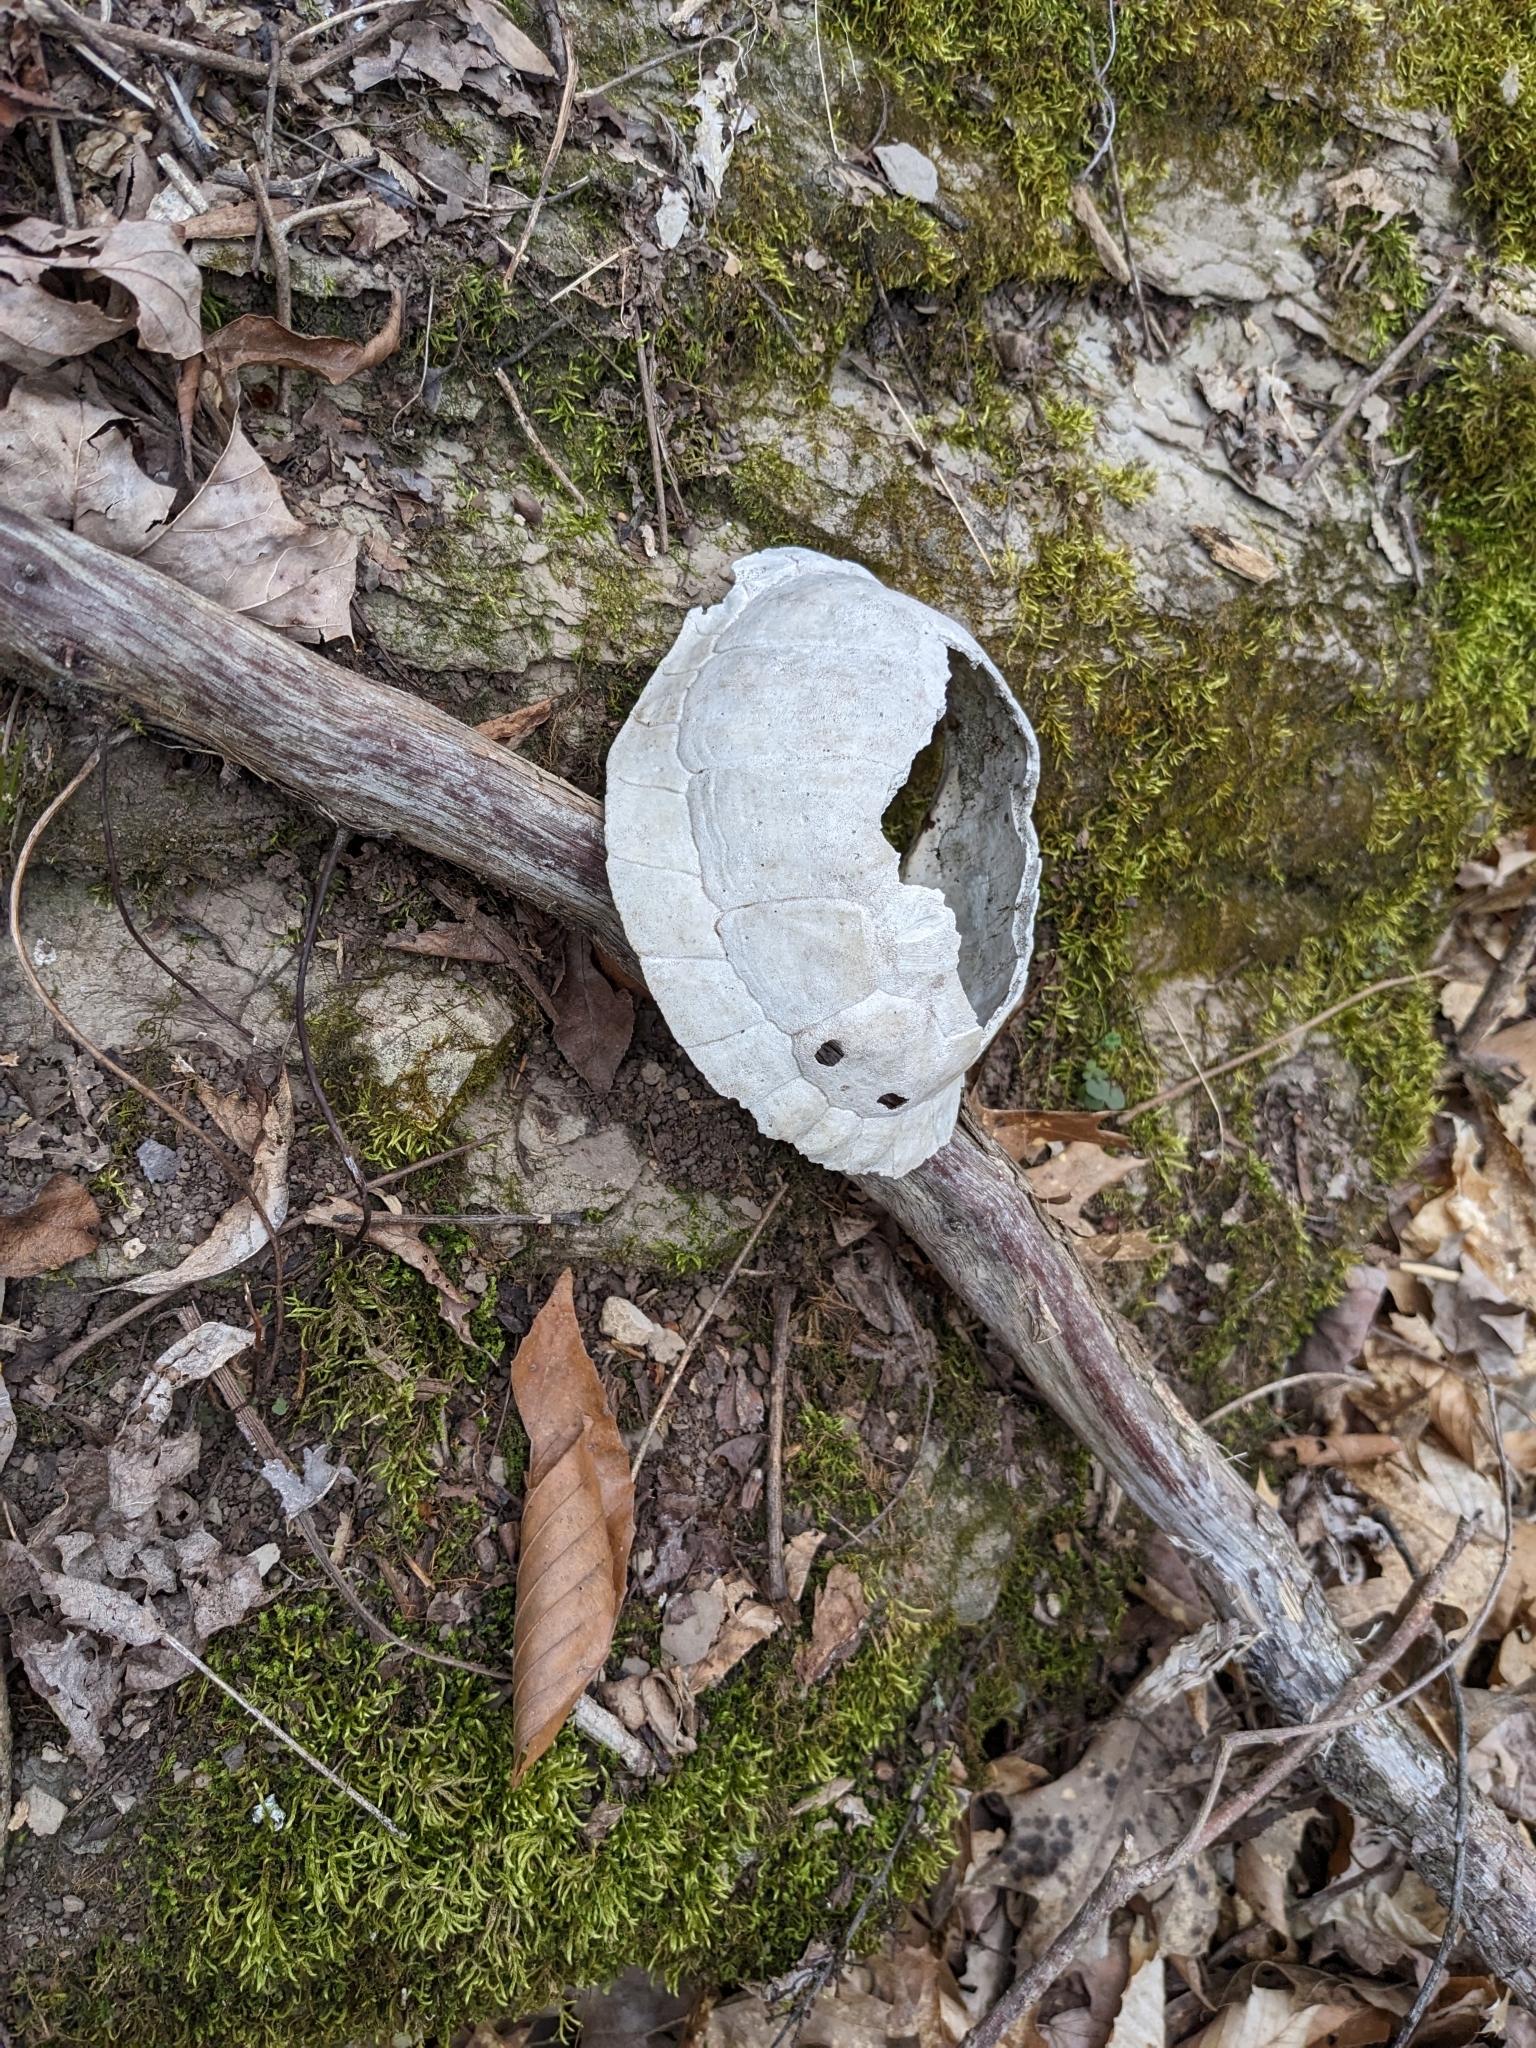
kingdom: Animalia
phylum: Chordata
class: Testudines
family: Emydidae
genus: Terrapene
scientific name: Terrapene carolina
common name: Common box turtle
